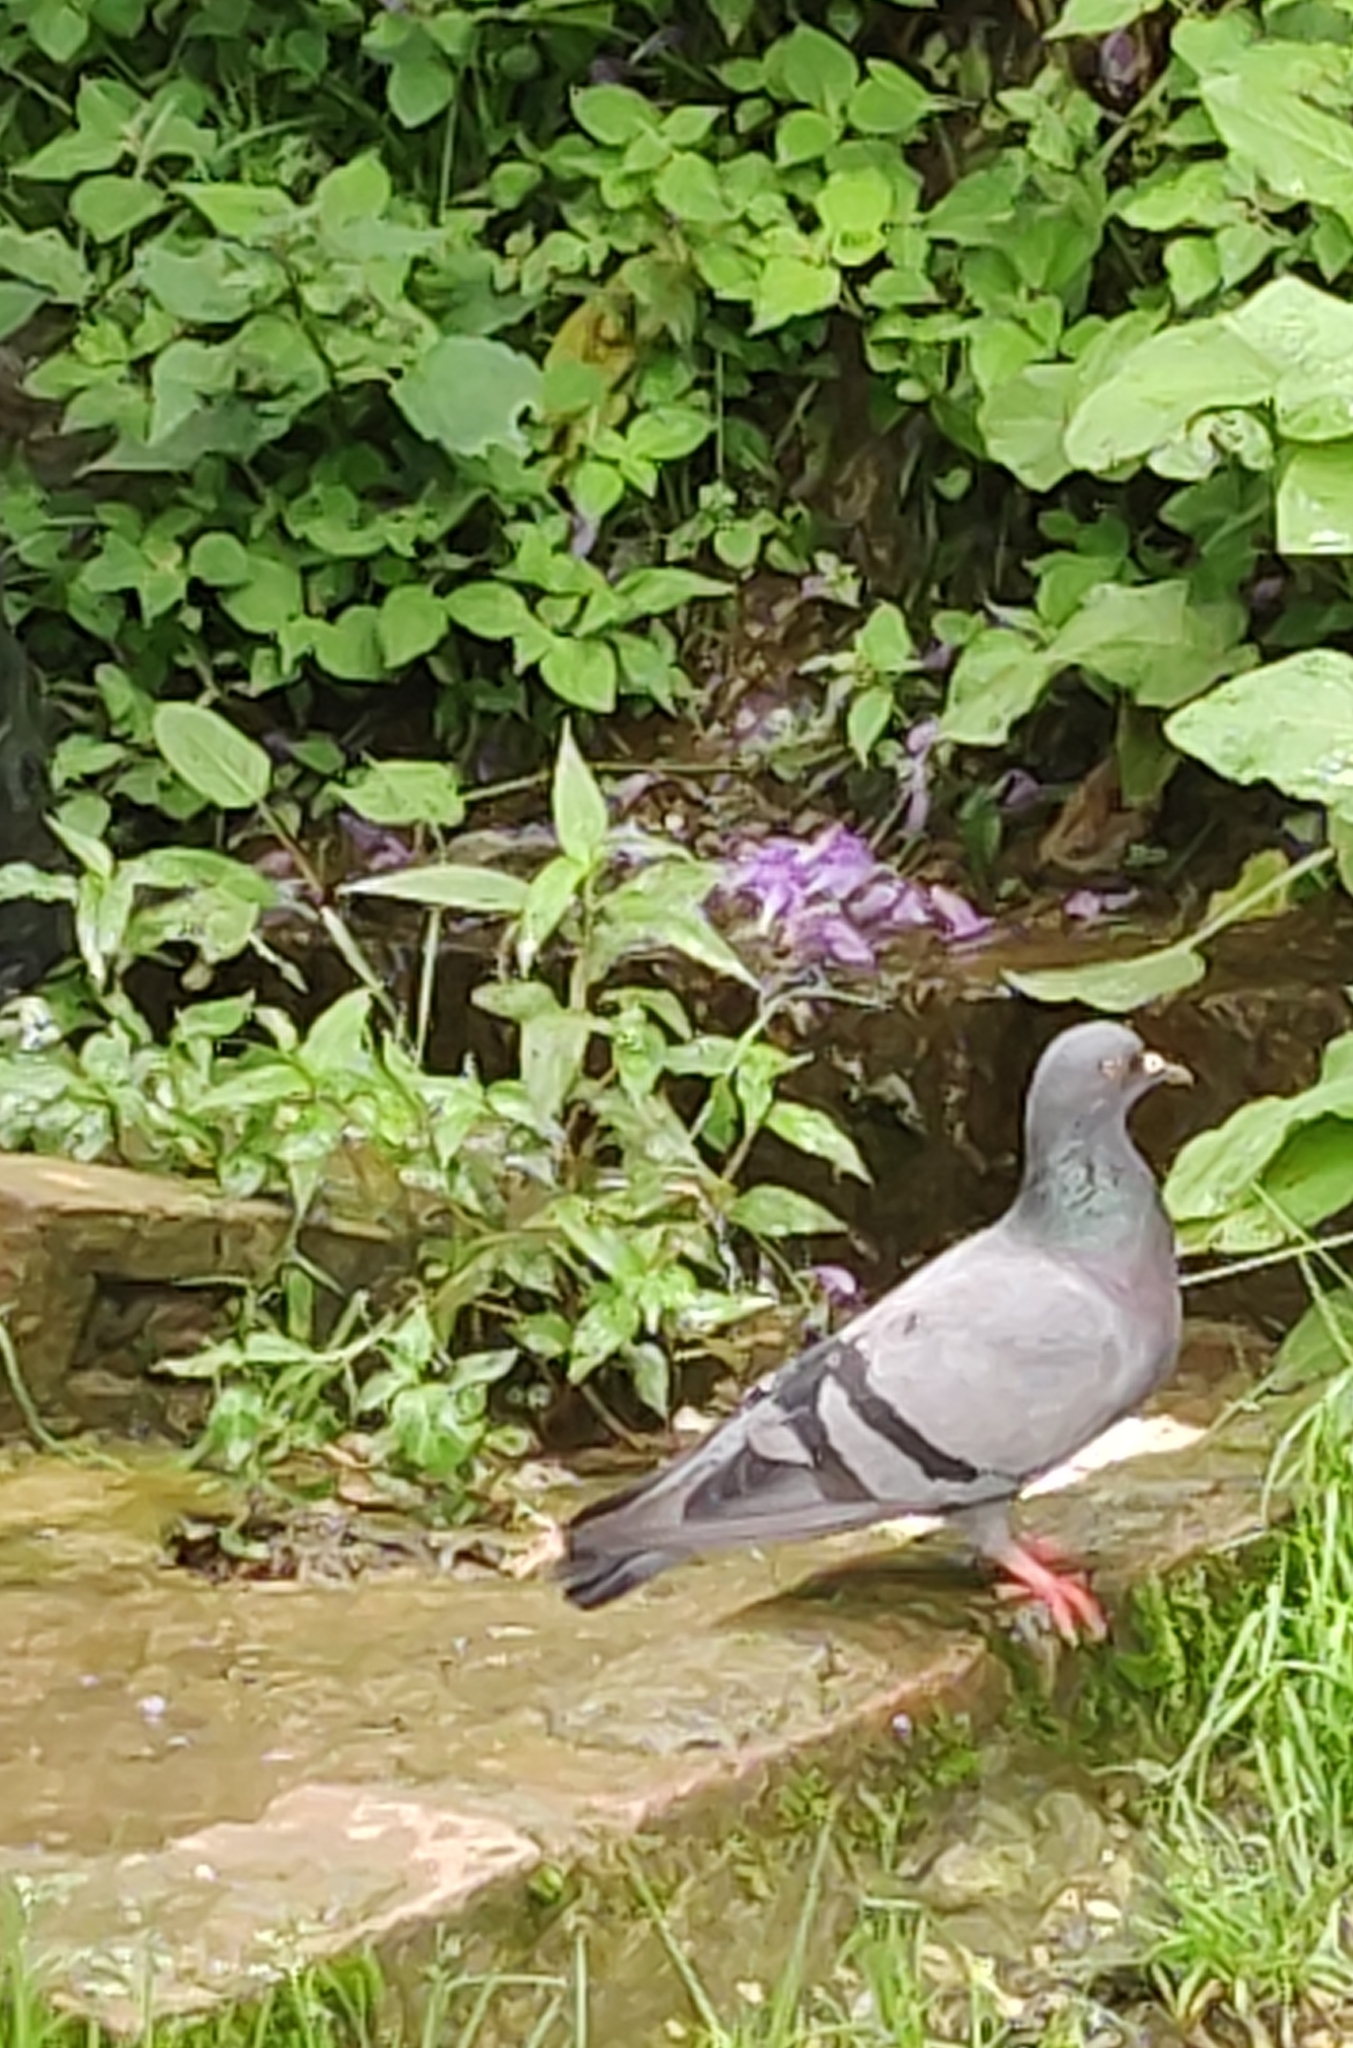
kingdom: Animalia
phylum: Chordata
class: Aves
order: Columbiformes
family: Columbidae
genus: Columba
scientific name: Columba livia
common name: Rock pigeon
